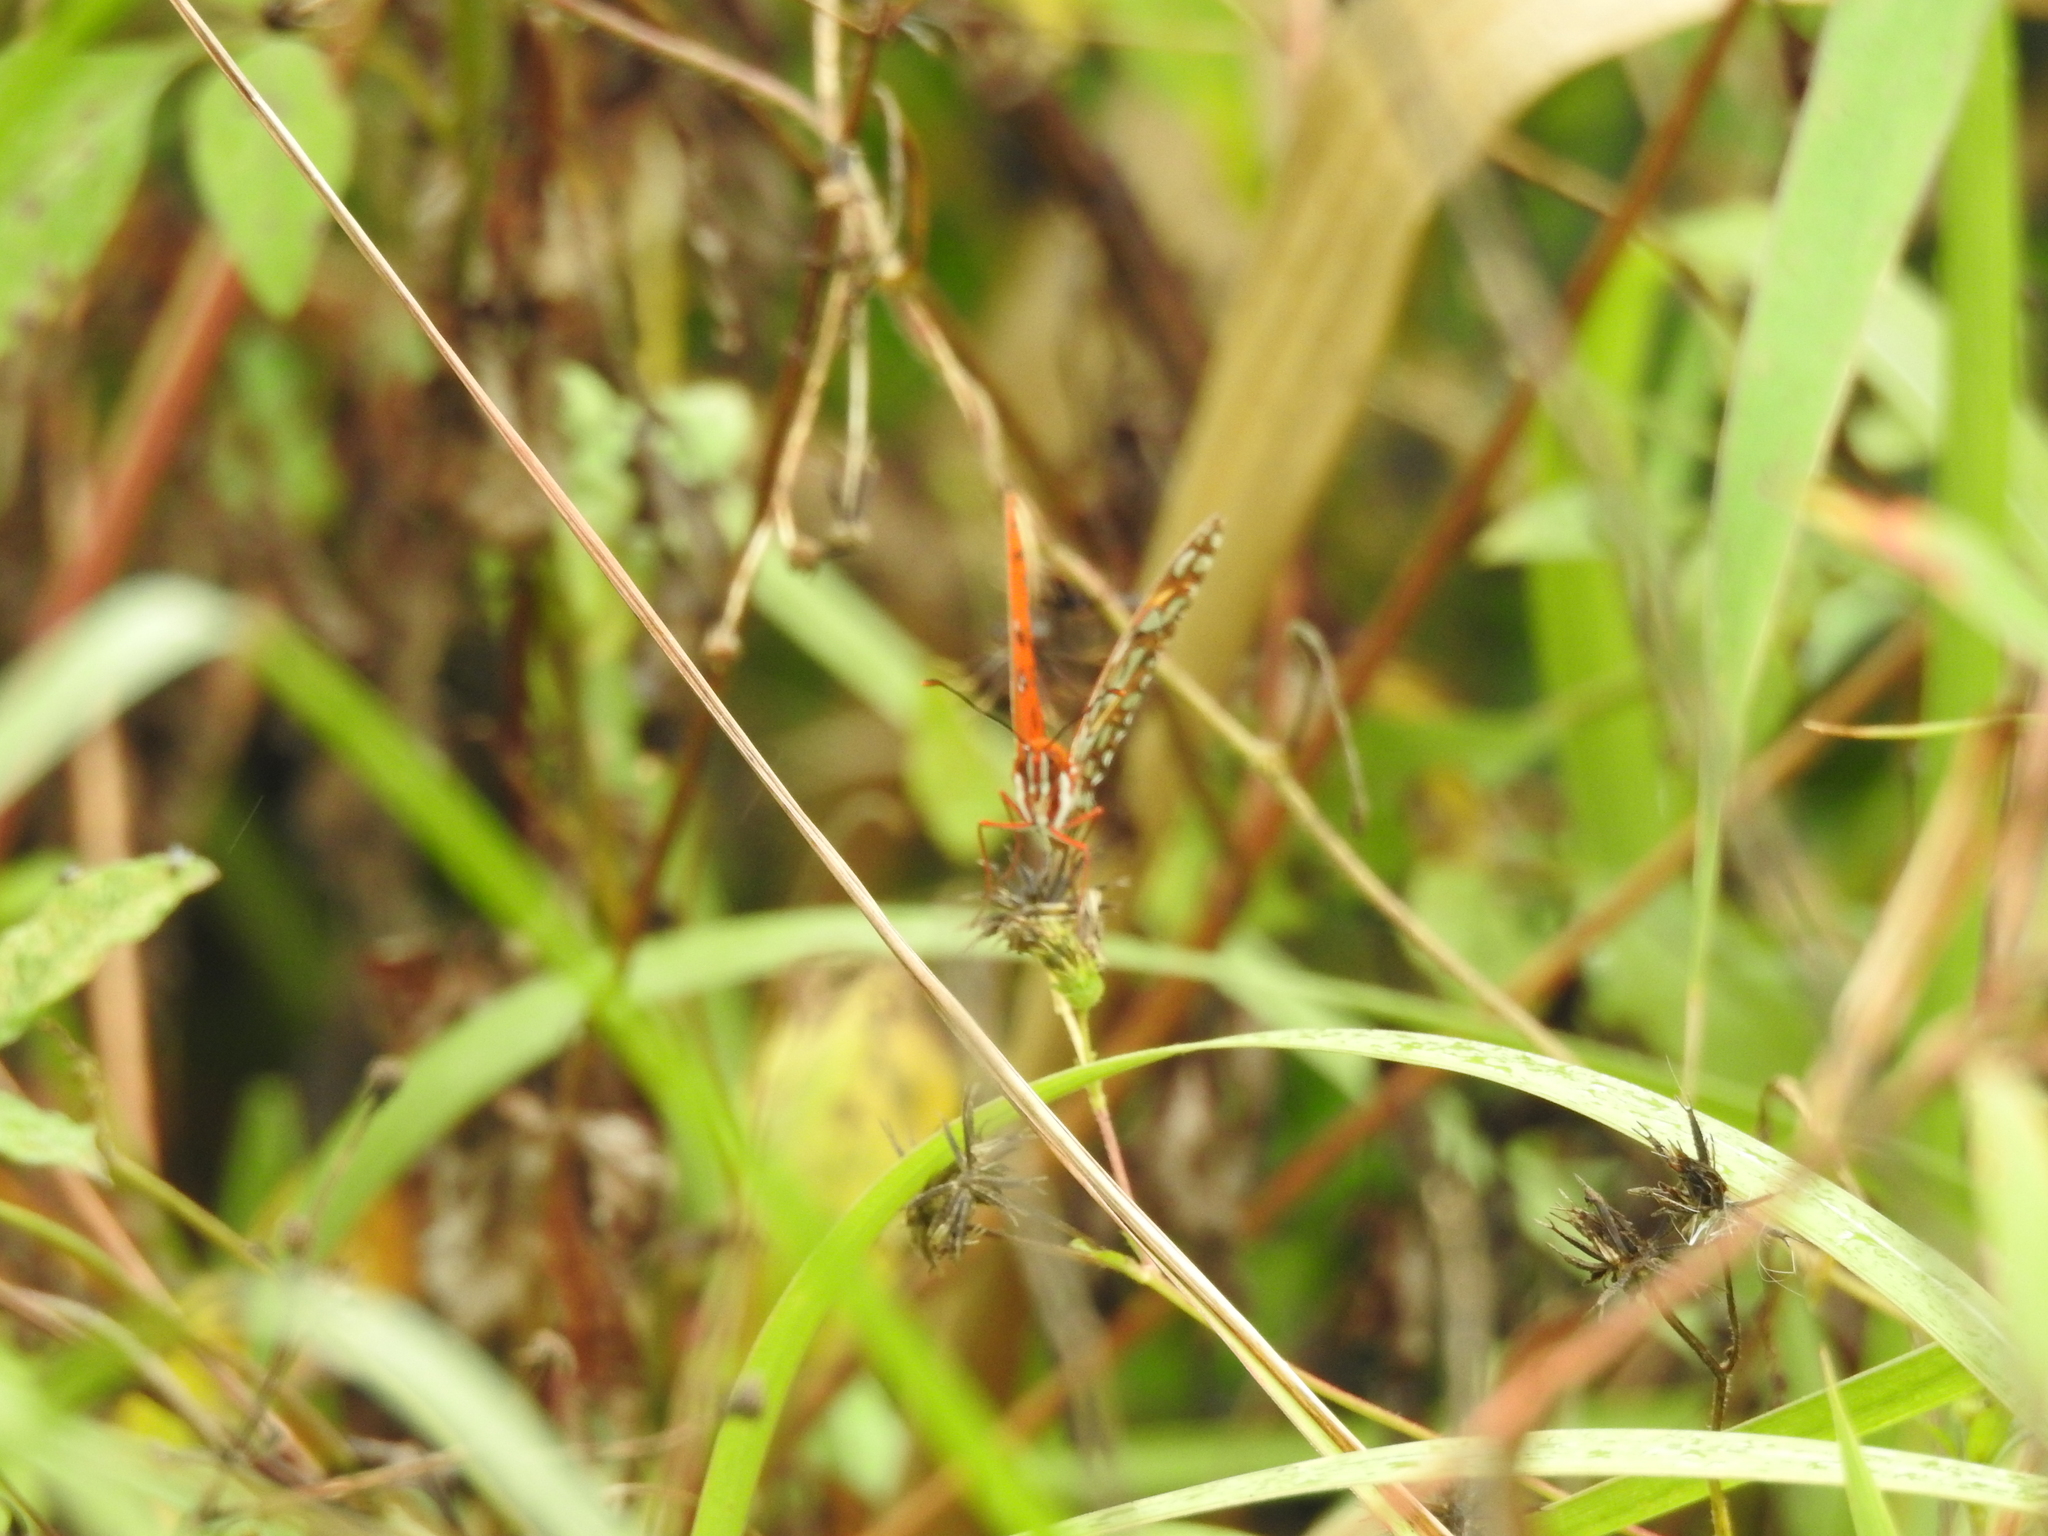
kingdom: Animalia
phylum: Arthropoda
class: Insecta
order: Lepidoptera
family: Nymphalidae
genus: Dione
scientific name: Dione vanillae
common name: Gulf fritillary
